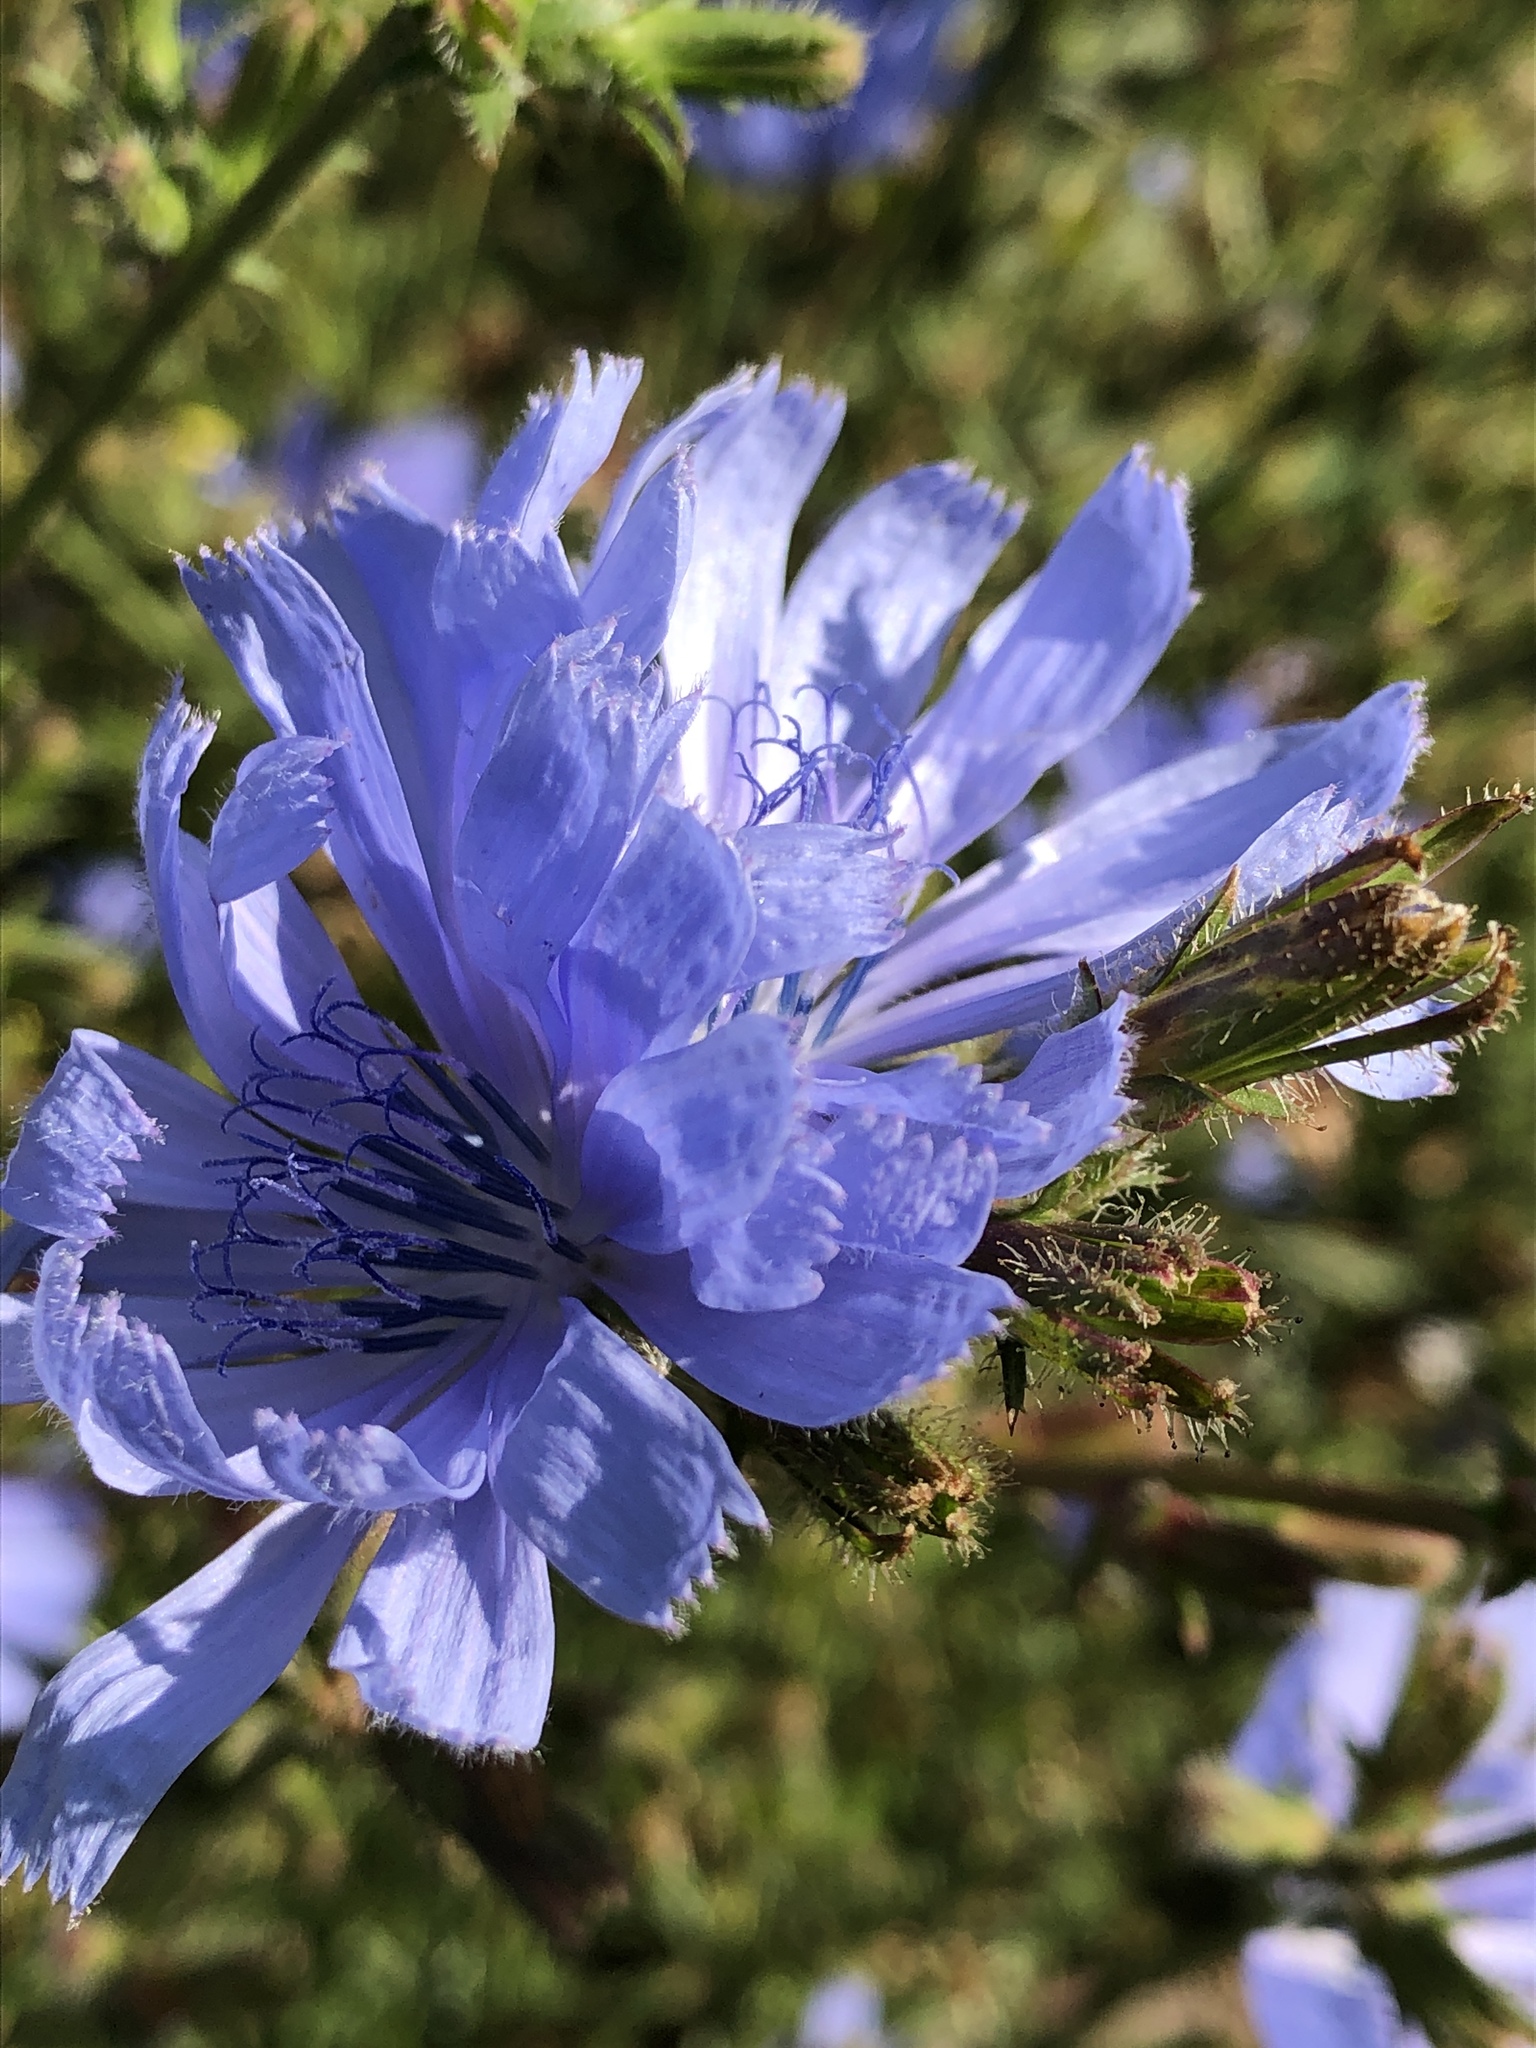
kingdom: Plantae
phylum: Tracheophyta
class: Magnoliopsida
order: Asterales
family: Asteraceae
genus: Cichorium
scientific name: Cichorium intybus
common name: Chicory
